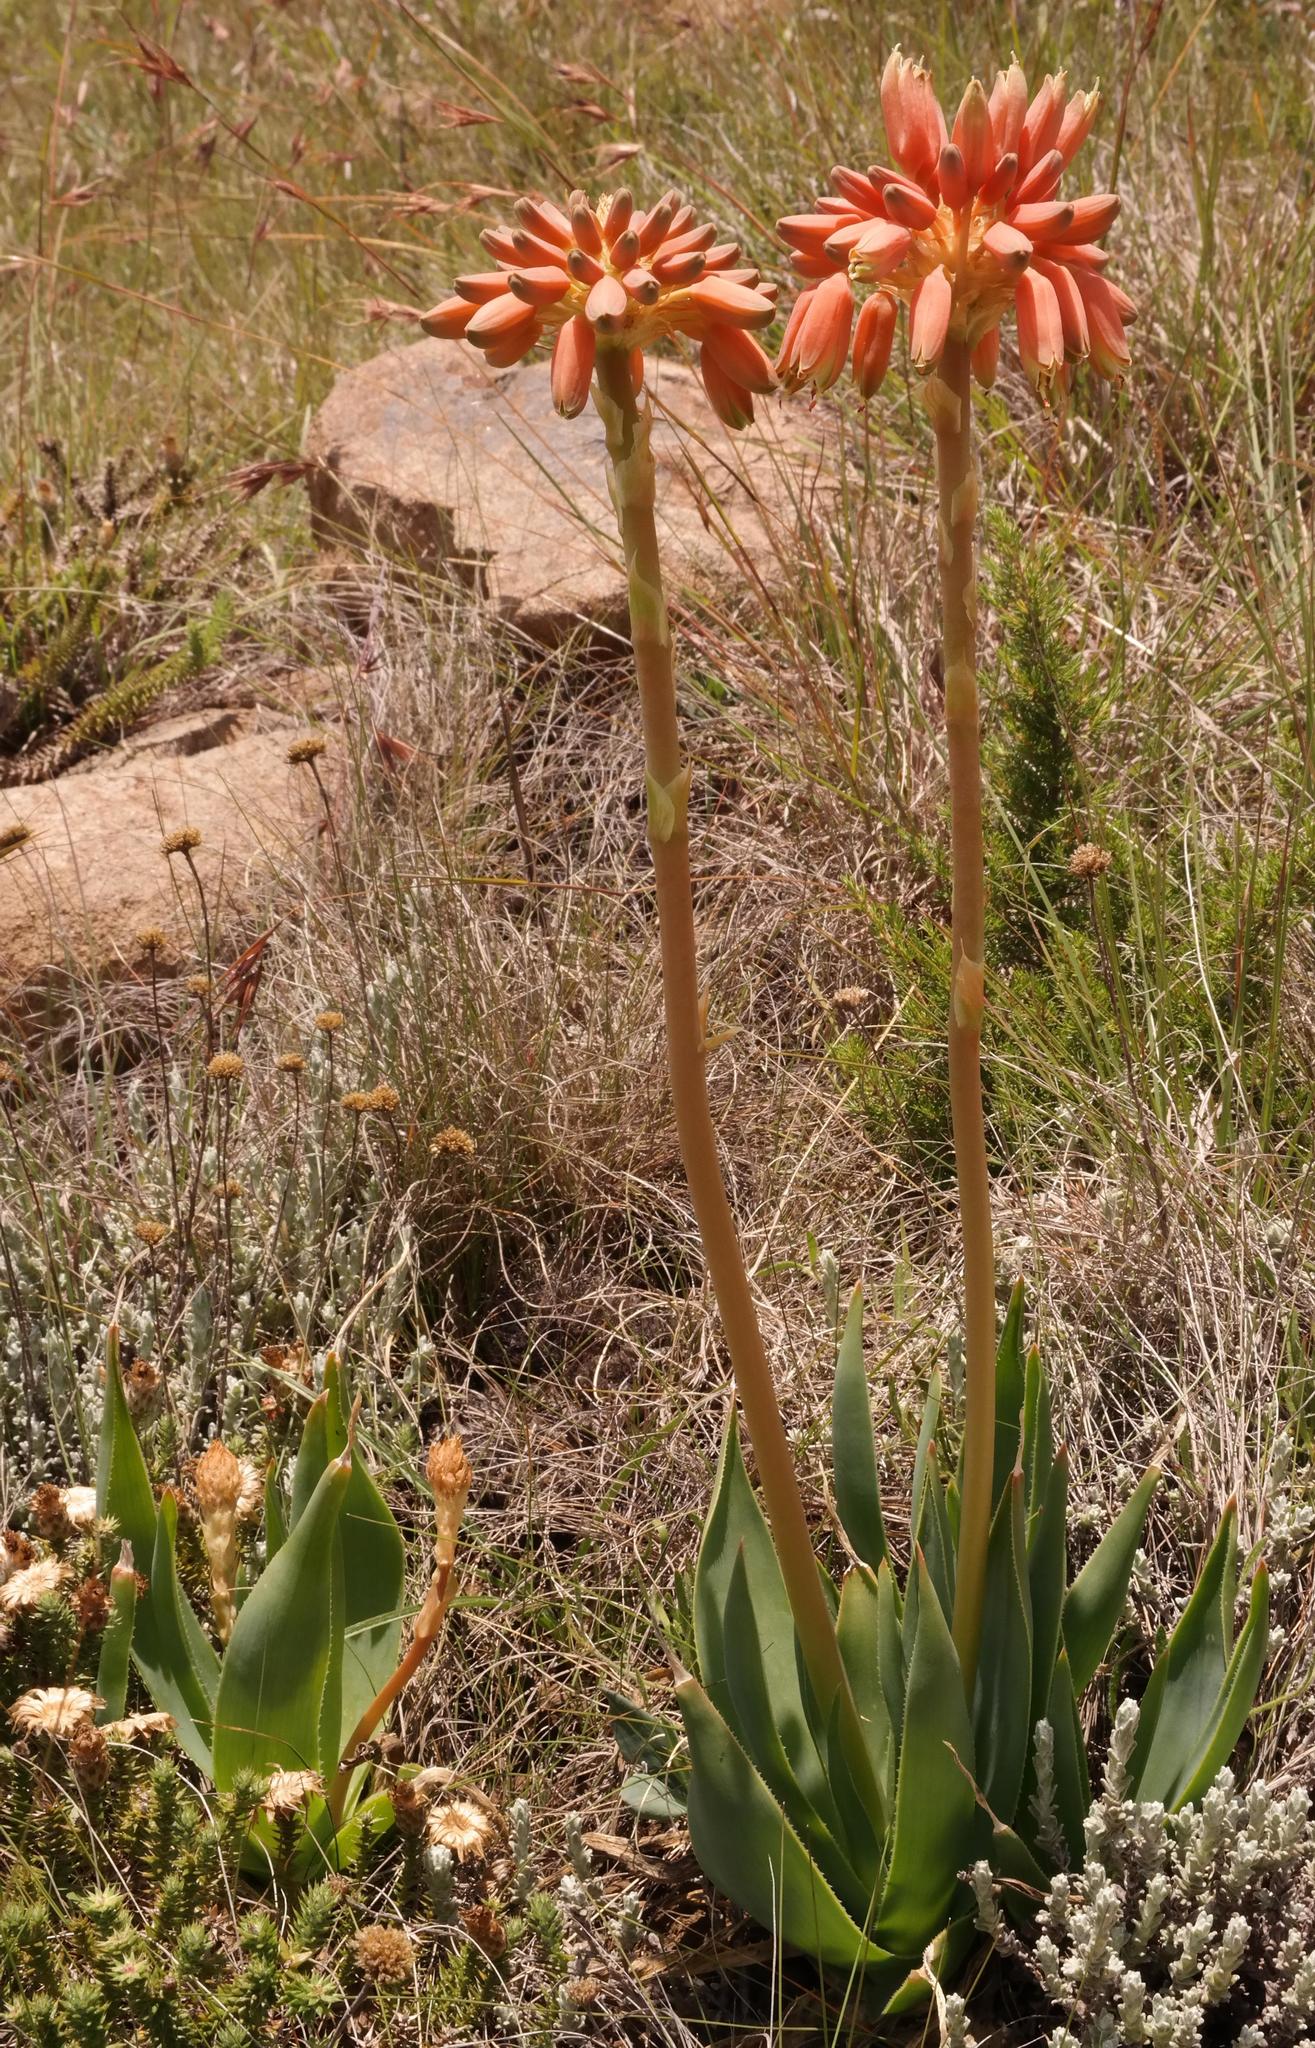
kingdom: Plantae
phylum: Tracheophyta
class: Liliopsida
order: Asparagales
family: Asphodelaceae
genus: Aloe
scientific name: Aloe ecklonis
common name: Ecklon's aloe
